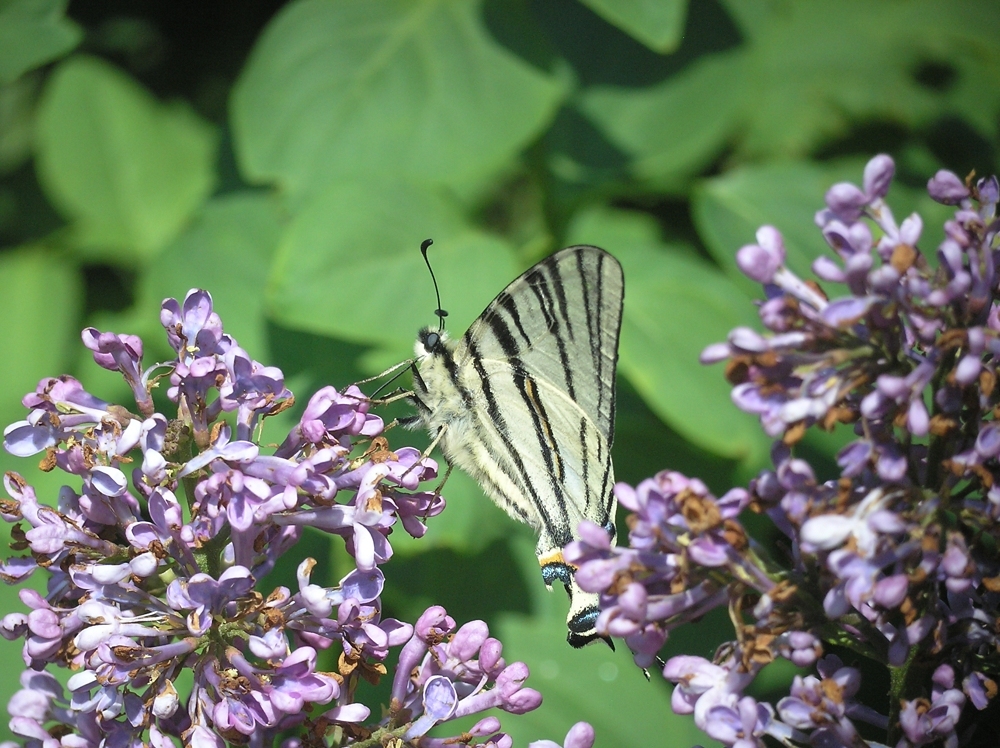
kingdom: Animalia
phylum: Arthropoda
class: Insecta
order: Lepidoptera
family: Papilionidae
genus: Iphiclides
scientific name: Iphiclides podalirius
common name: Scarce swallowtail
